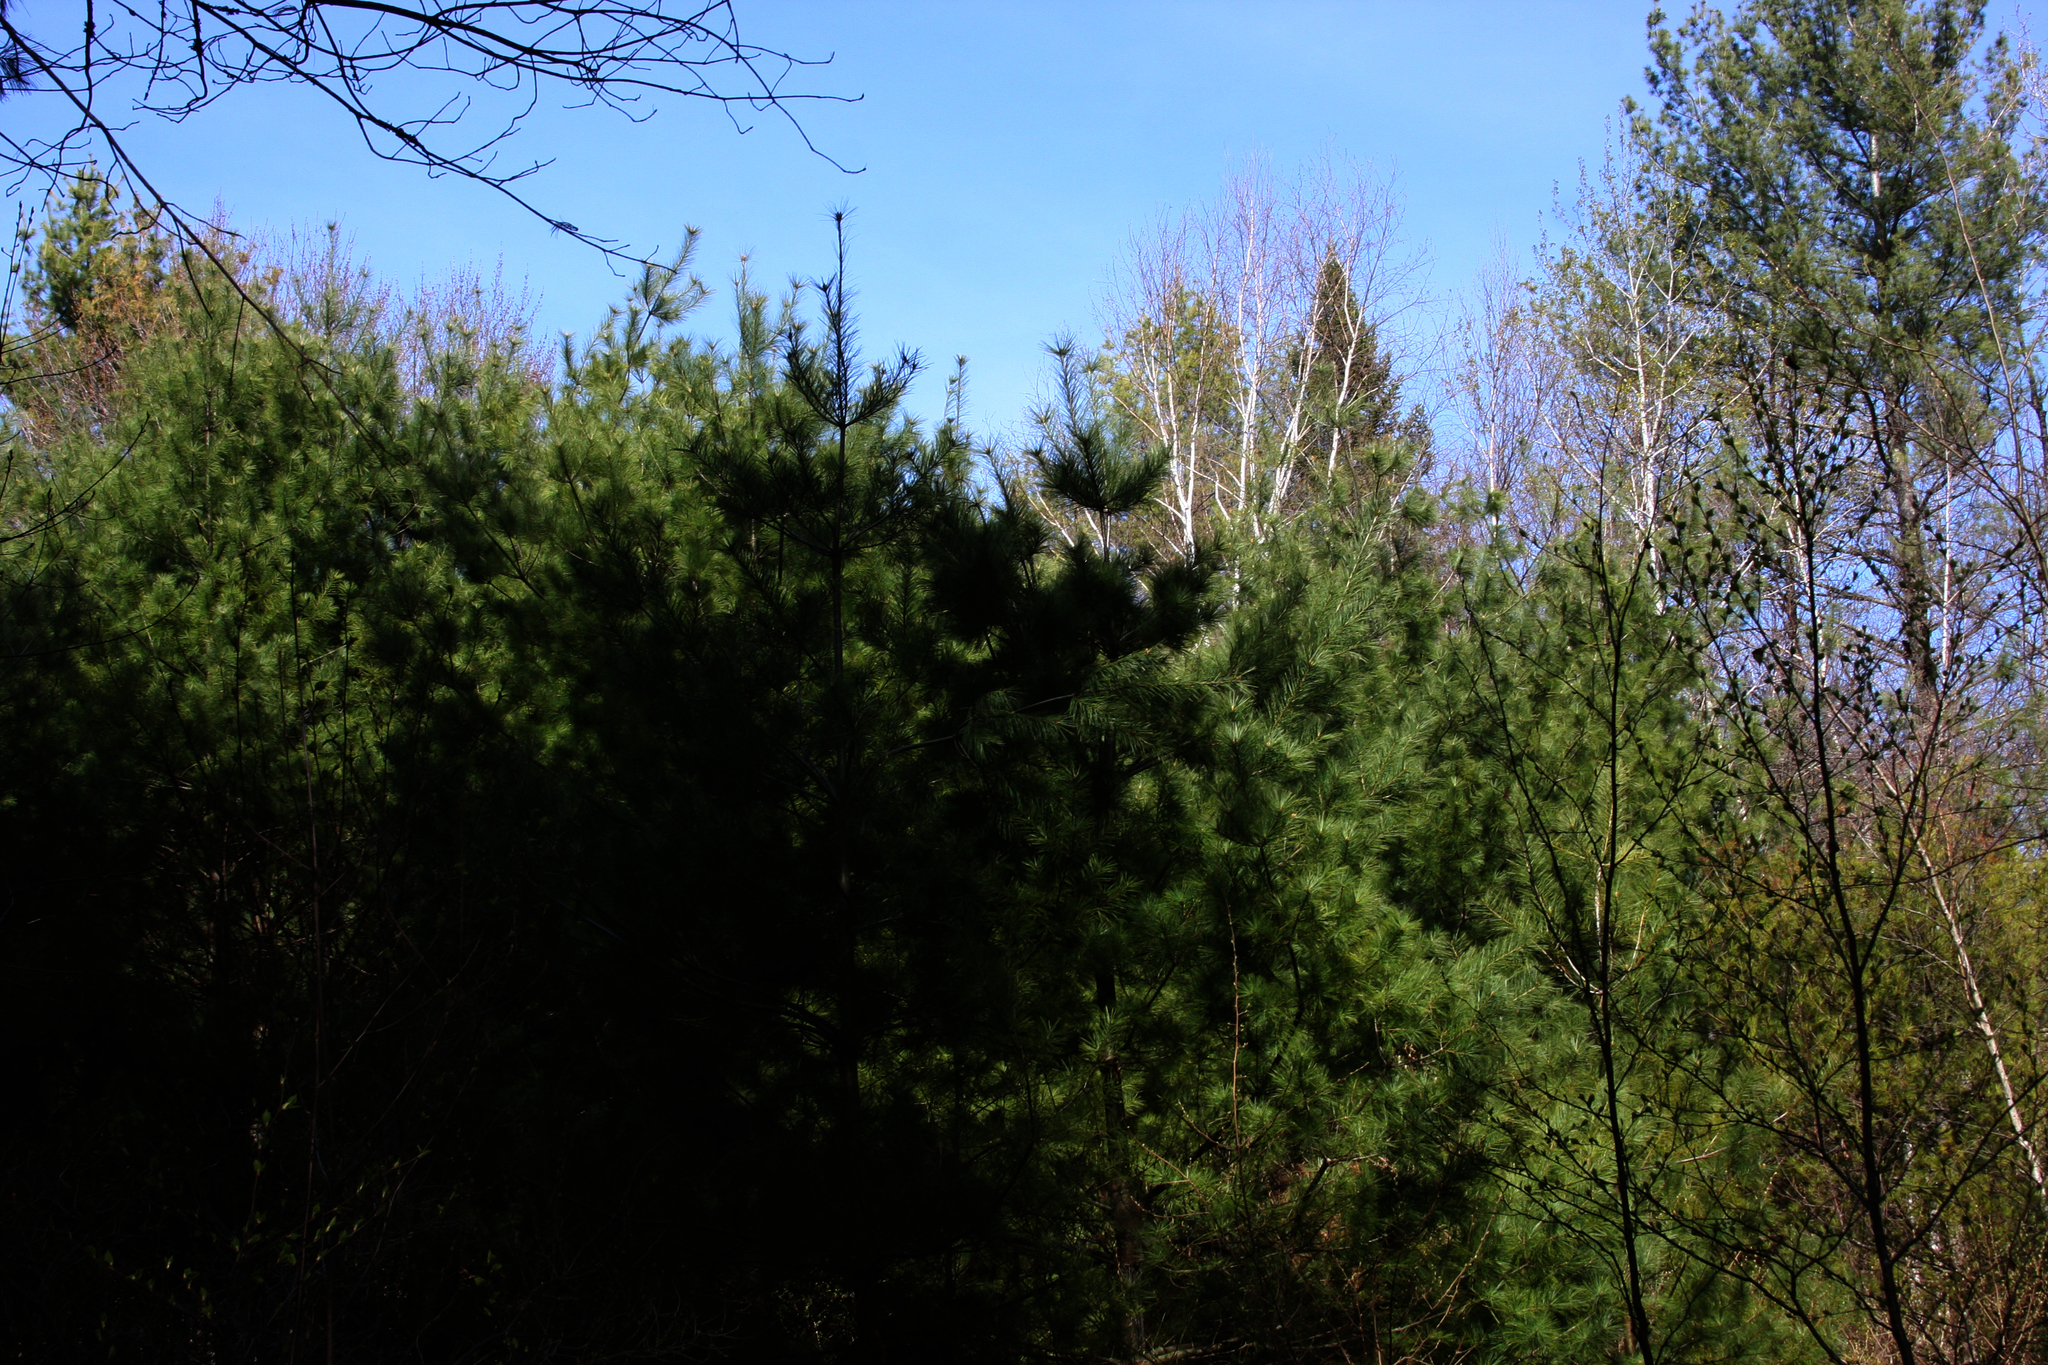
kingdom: Plantae
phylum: Tracheophyta
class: Pinopsida
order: Pinales
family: Pinaceae
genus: Pinus
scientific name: Pinus strobus
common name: Weymouth pine
